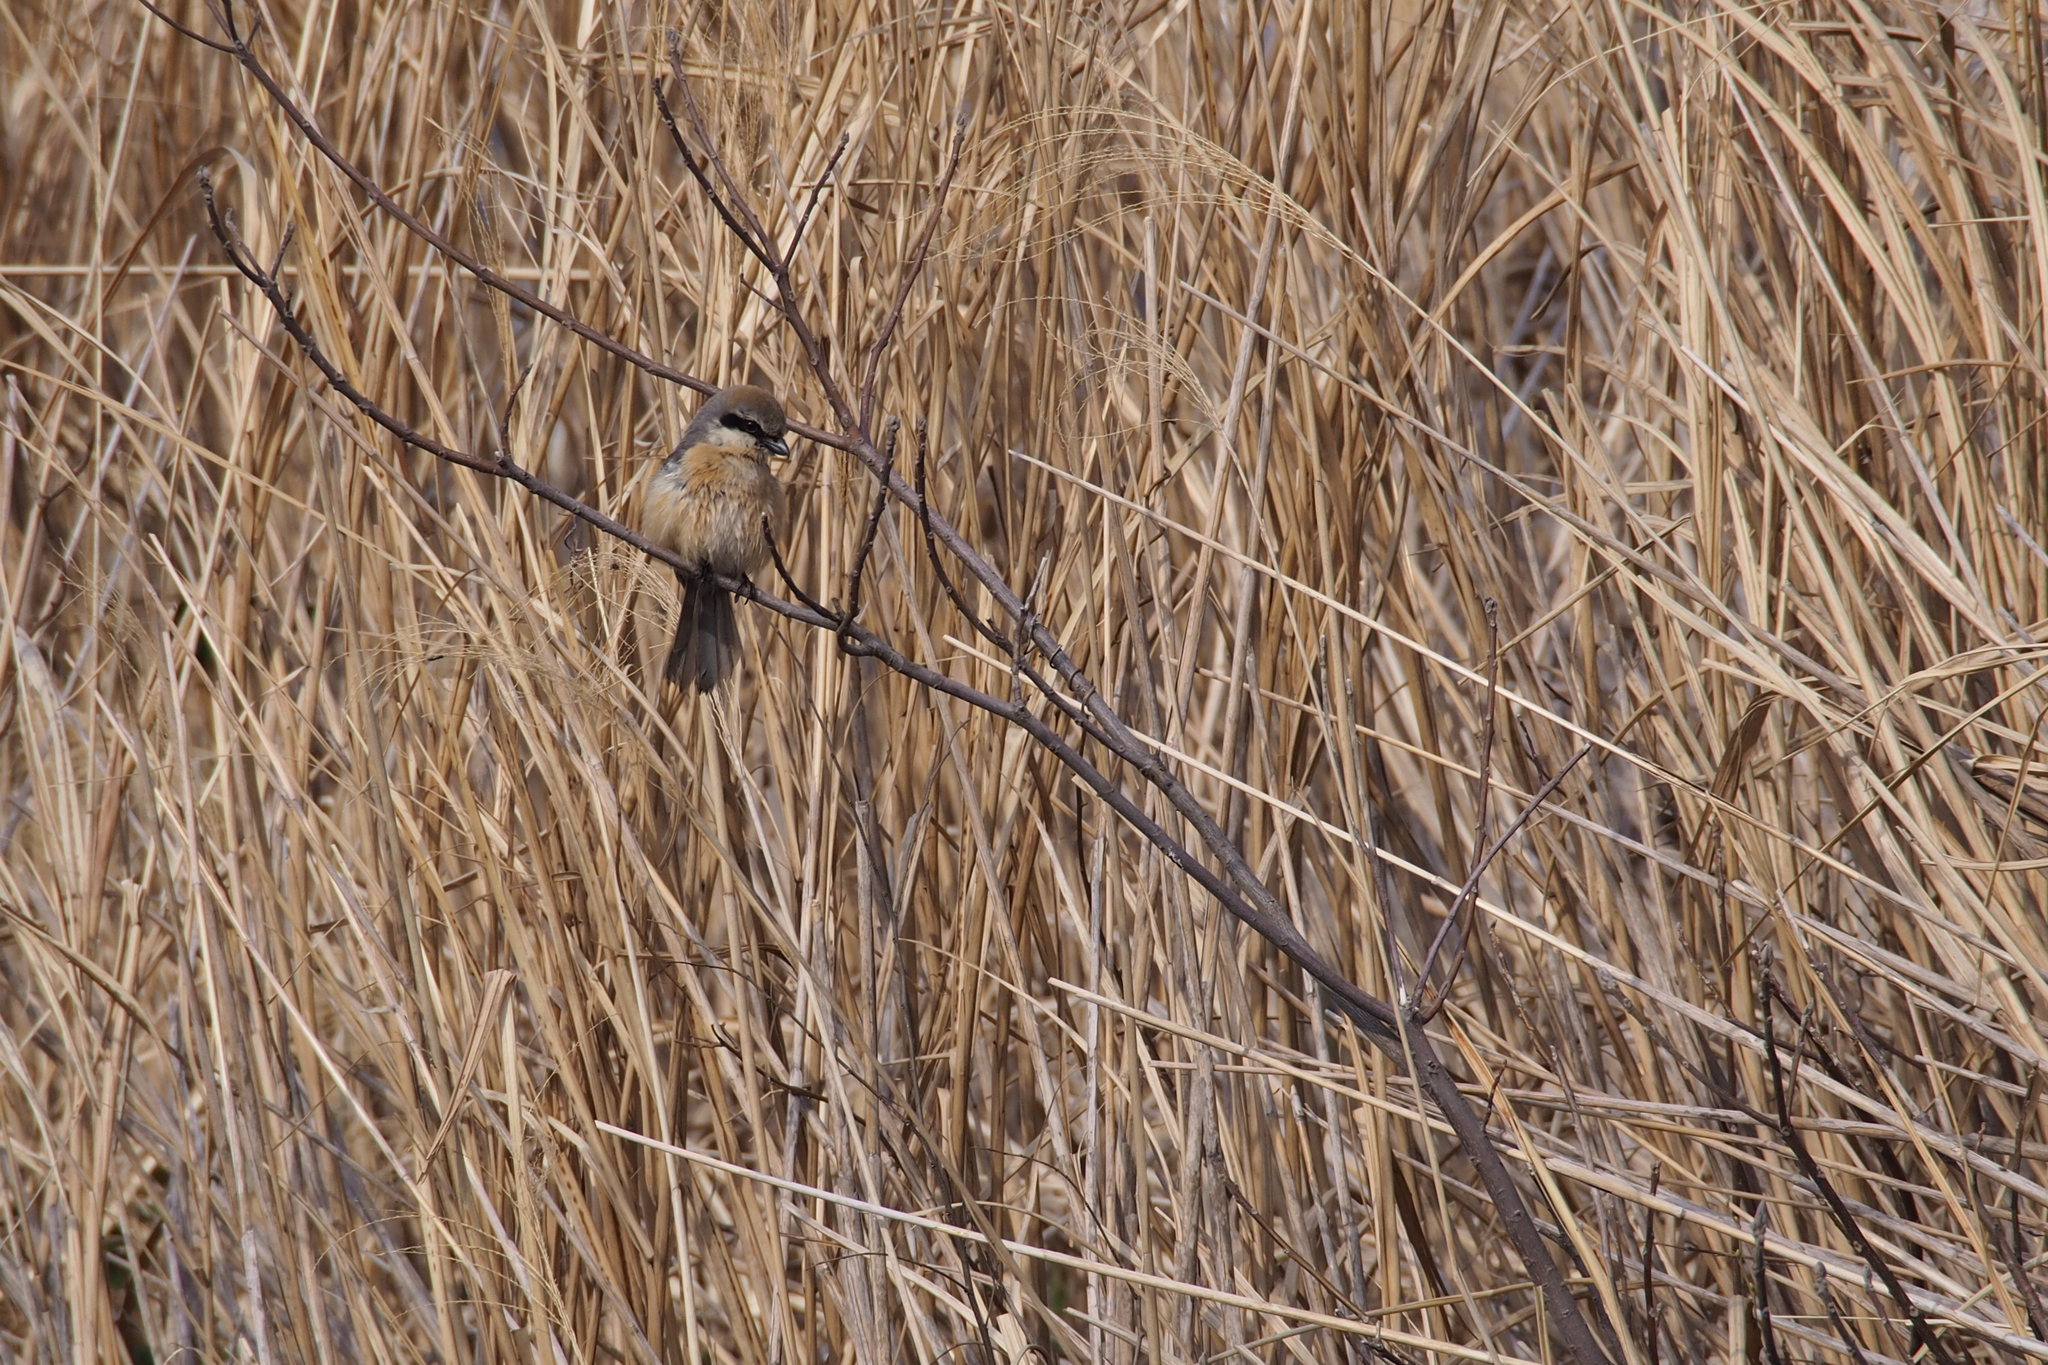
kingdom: Animalia
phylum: Chordata
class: Aves
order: Passeriformes
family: Laniidae
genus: Lanius
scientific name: Lanius bucephalus
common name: Bull-headed shrike
